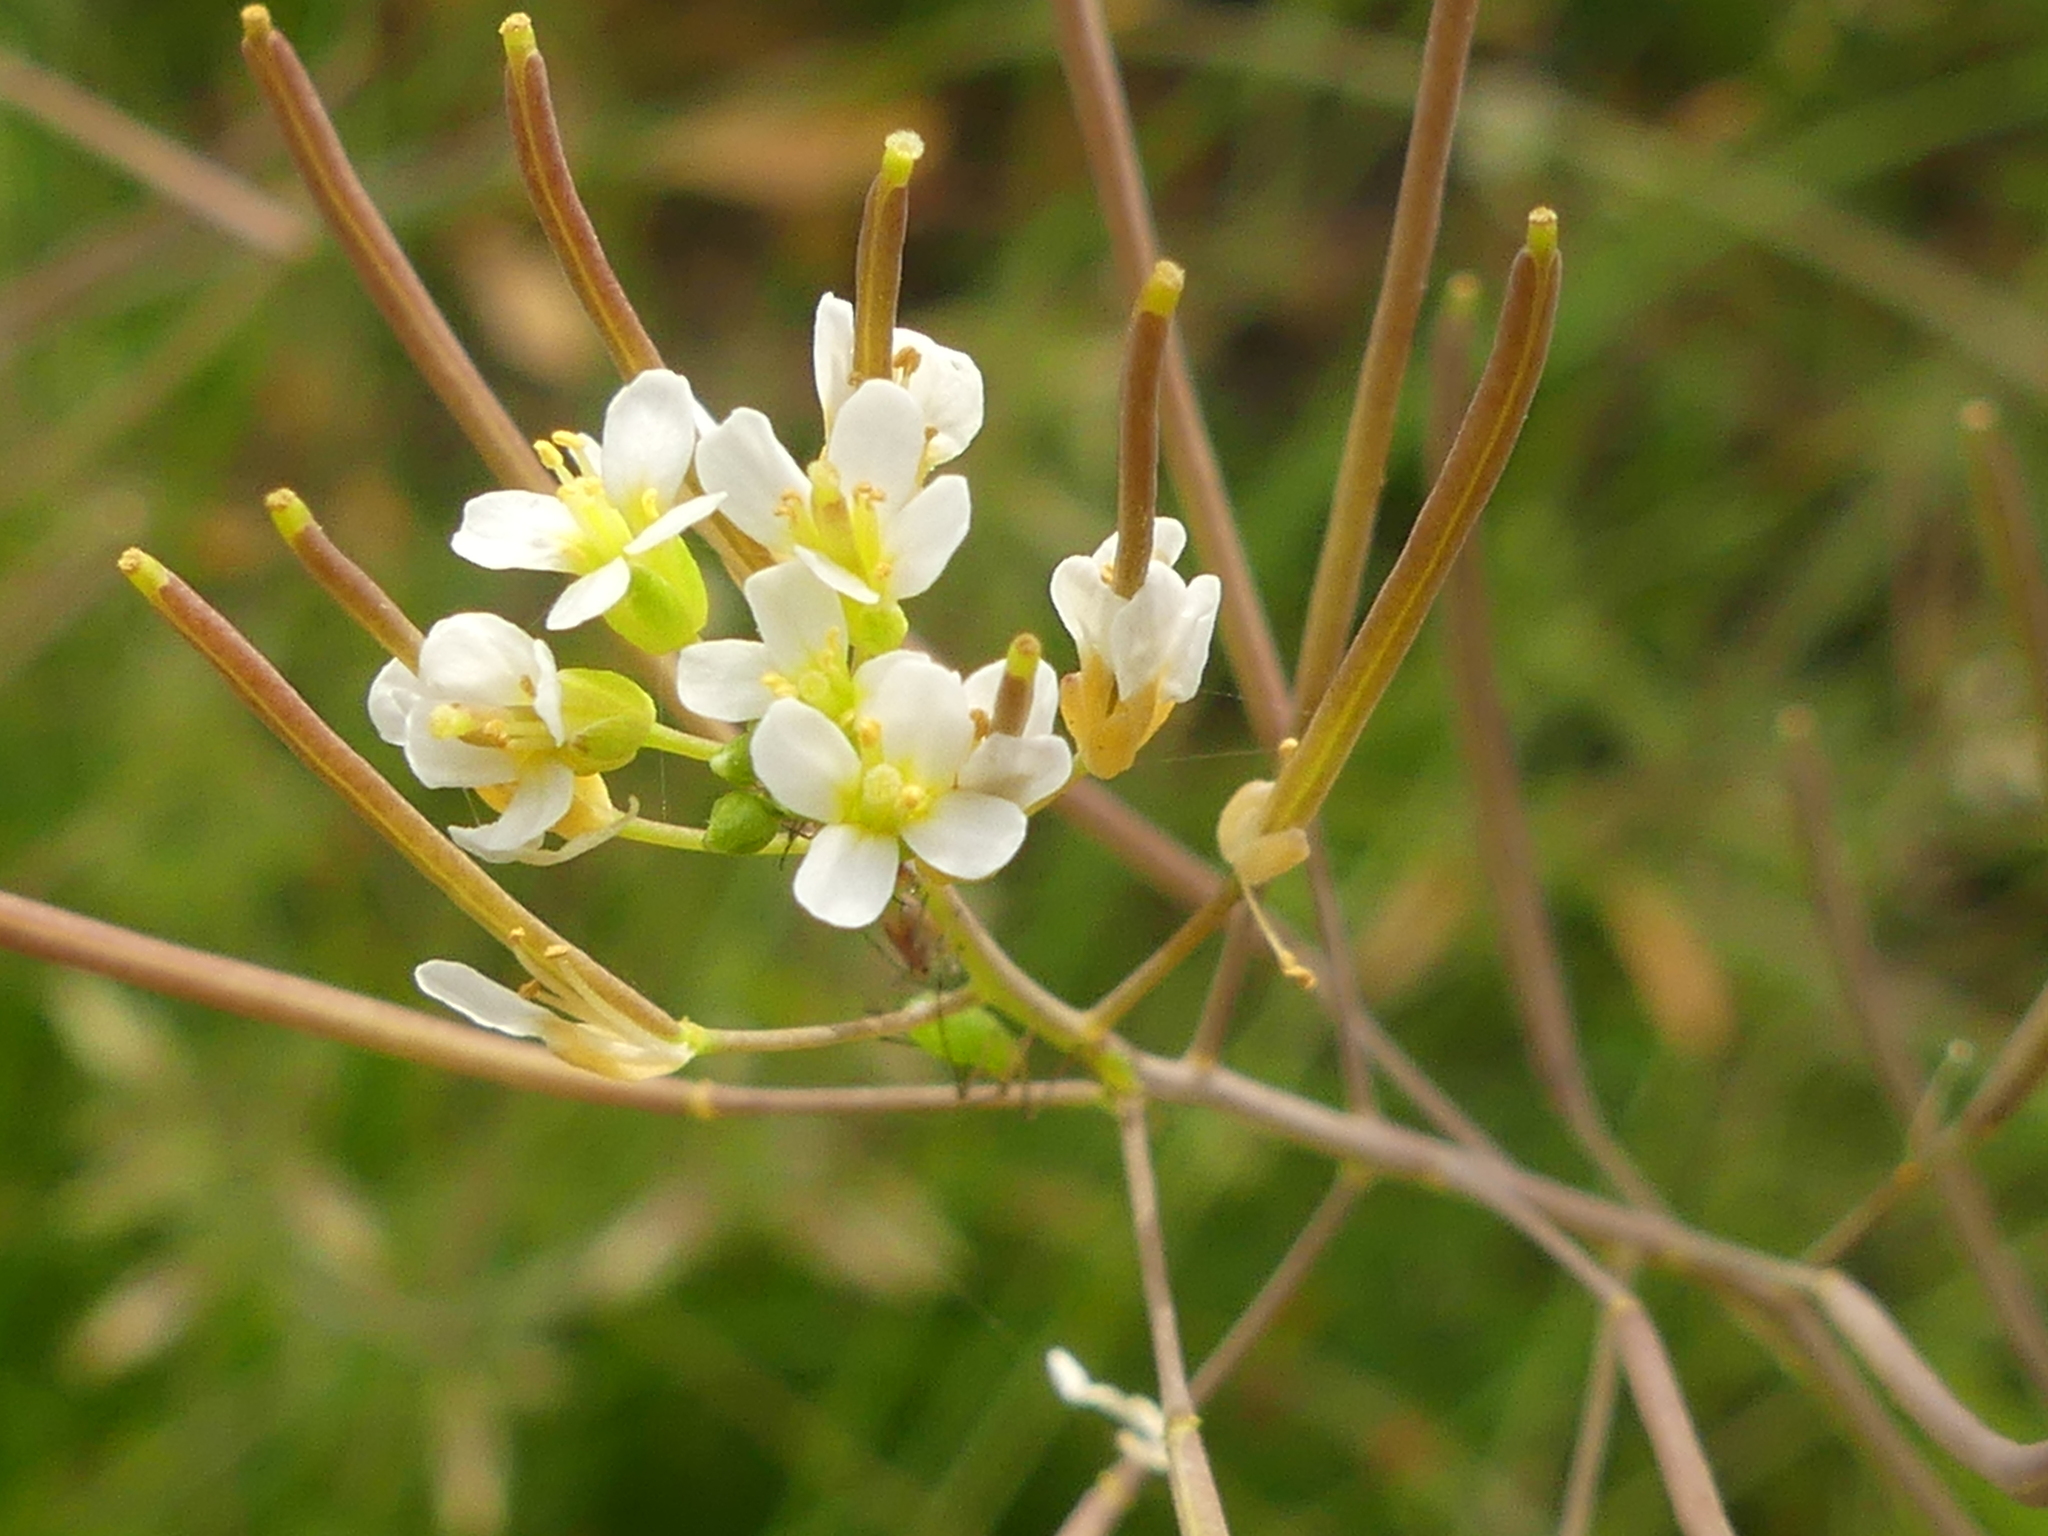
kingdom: Plantae
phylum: Tracheophyta
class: Magnoliopsida
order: Brassicales
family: Brassicaceae
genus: Arabidopsis
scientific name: Arabidopsis thaliana
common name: Thale cress
